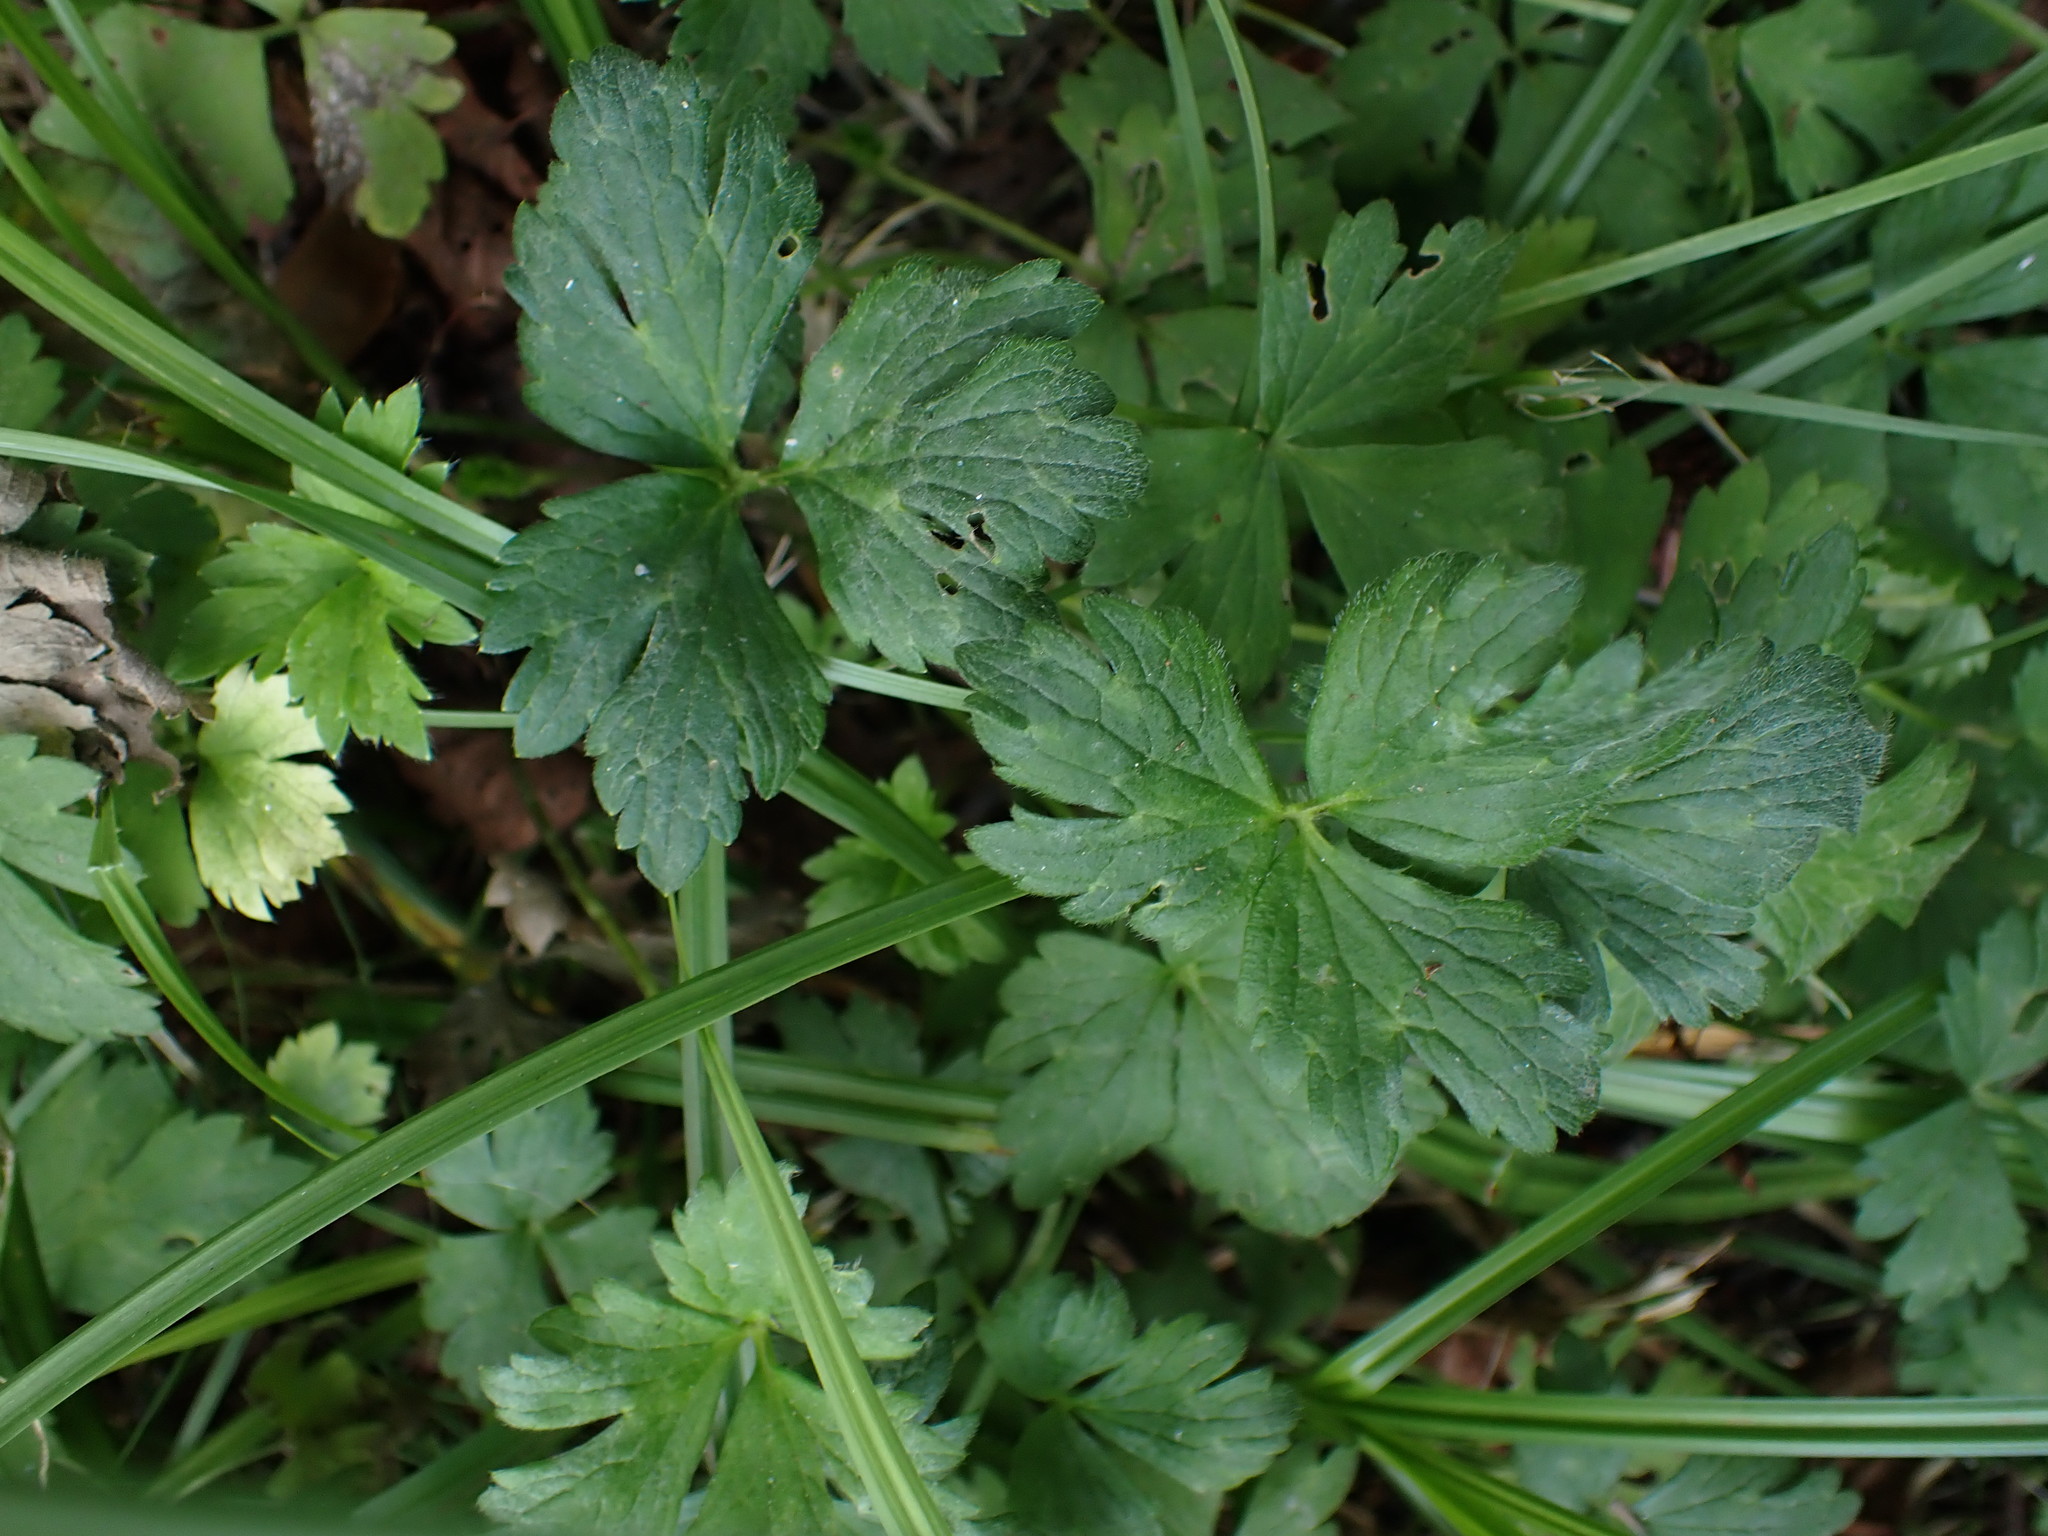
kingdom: Plantae
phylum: Tracheophyta
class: Magnoliopsida
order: Ranunculales
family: Ranunculaceae
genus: Ranunculus
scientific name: Ranunculus repens
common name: Creeping buttercup
